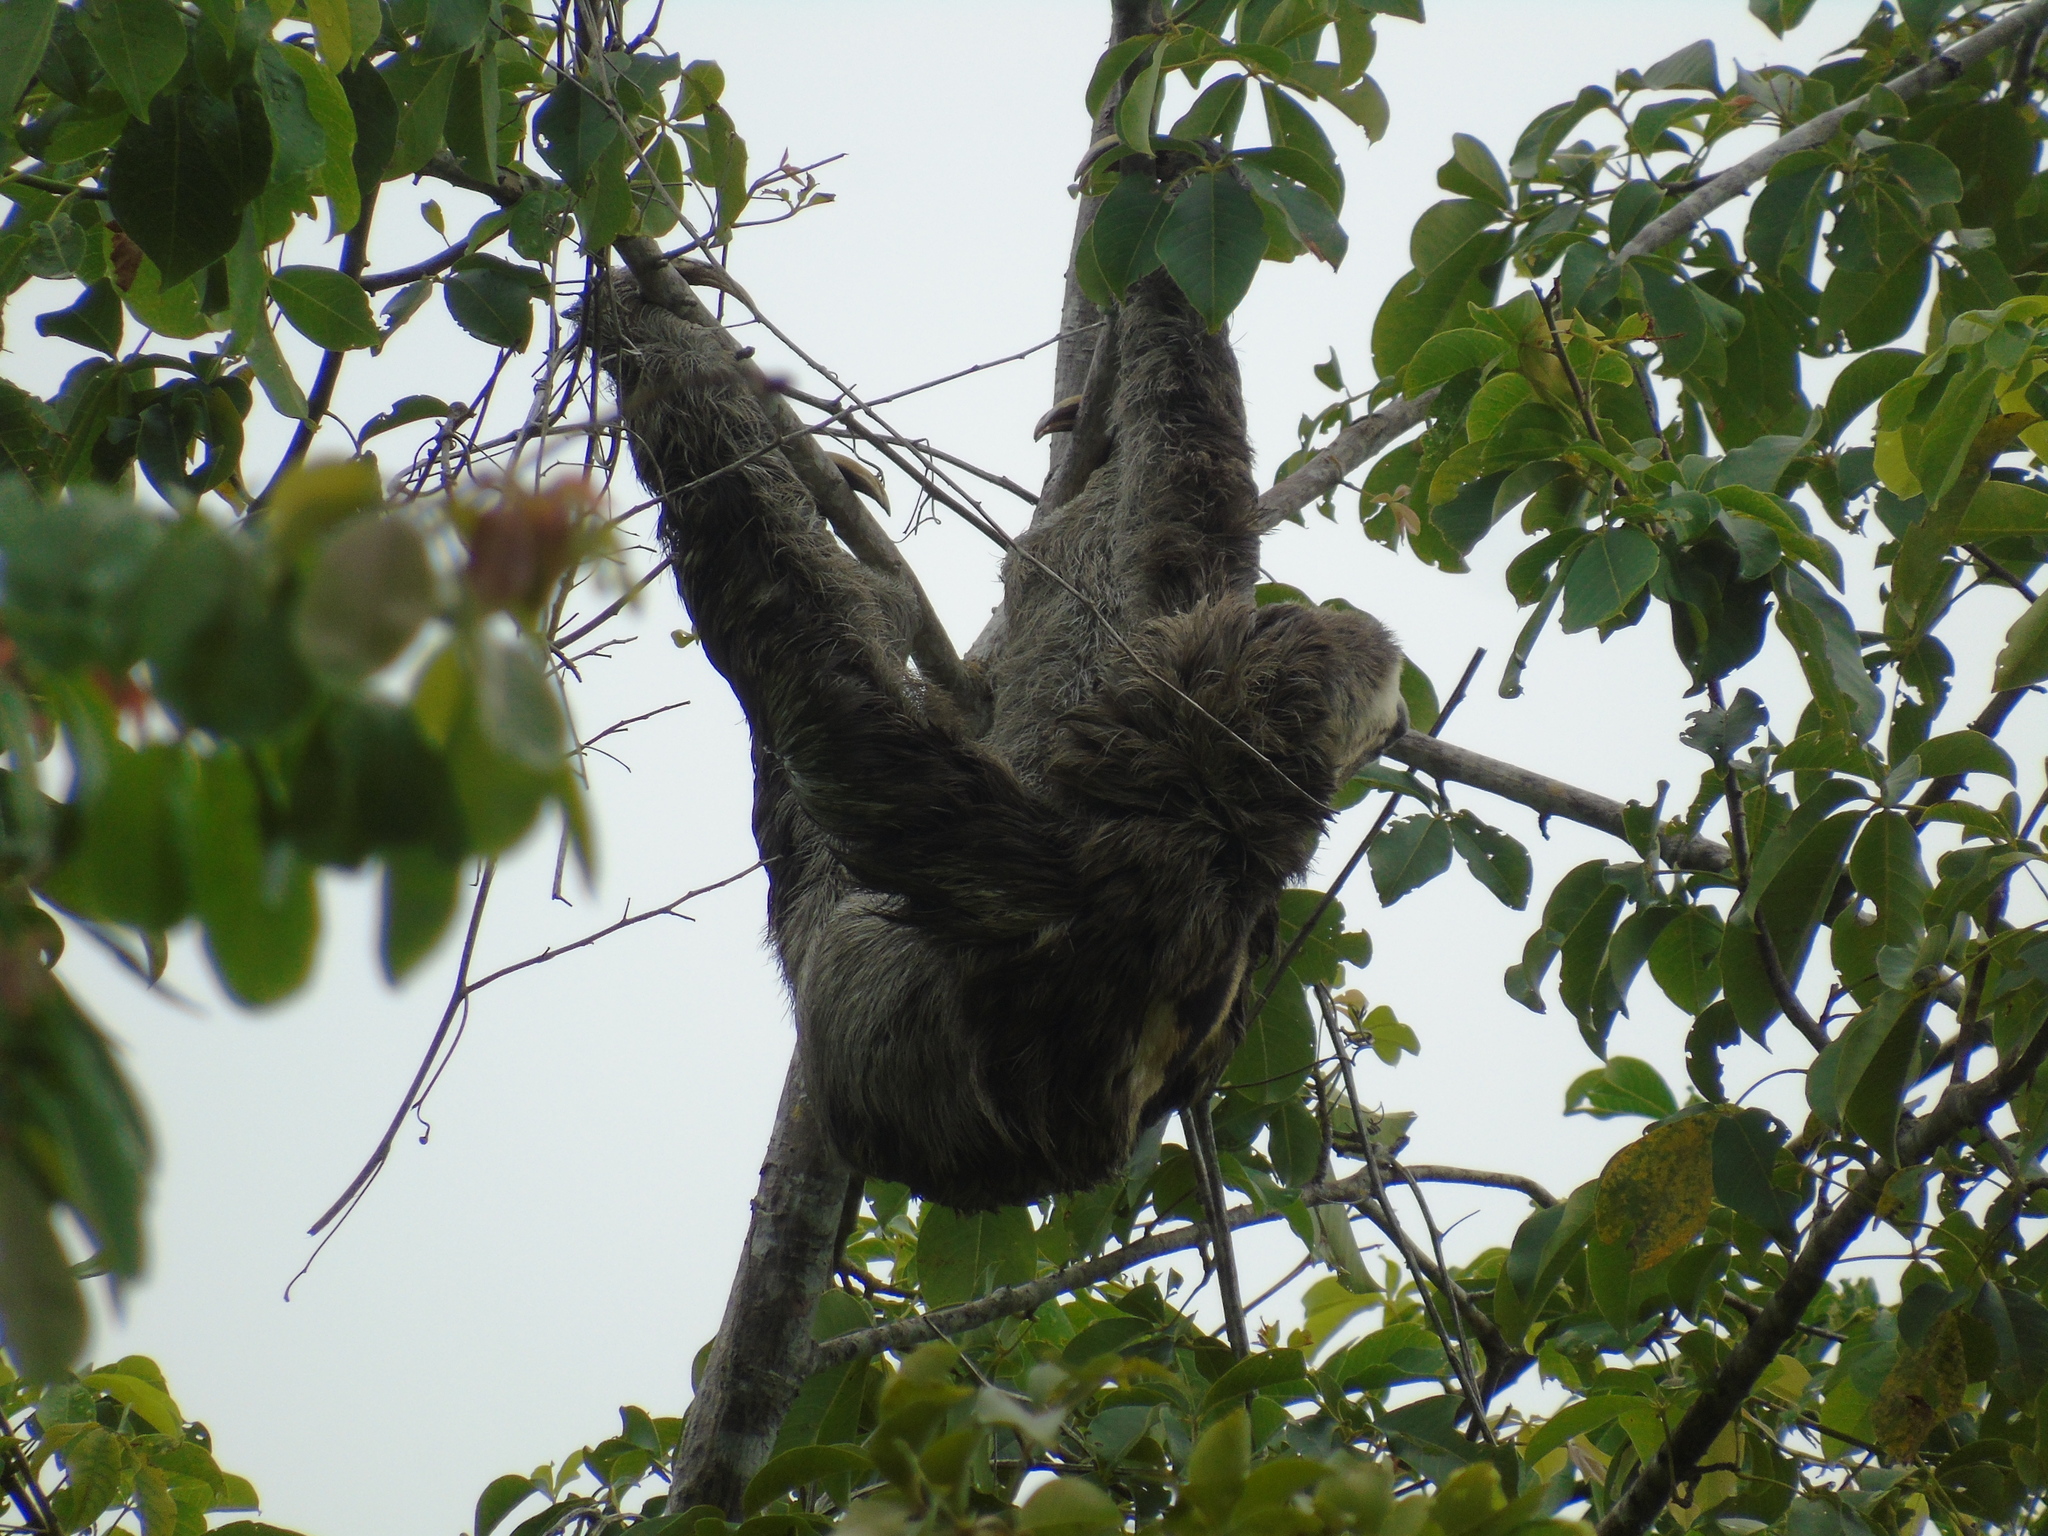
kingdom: Animalia
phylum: Chordata
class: Mammalia
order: Pilosa
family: Bradypodidae
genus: Bradypus
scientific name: Bradypus variegatus
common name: Brown-throated three-toed sloth
